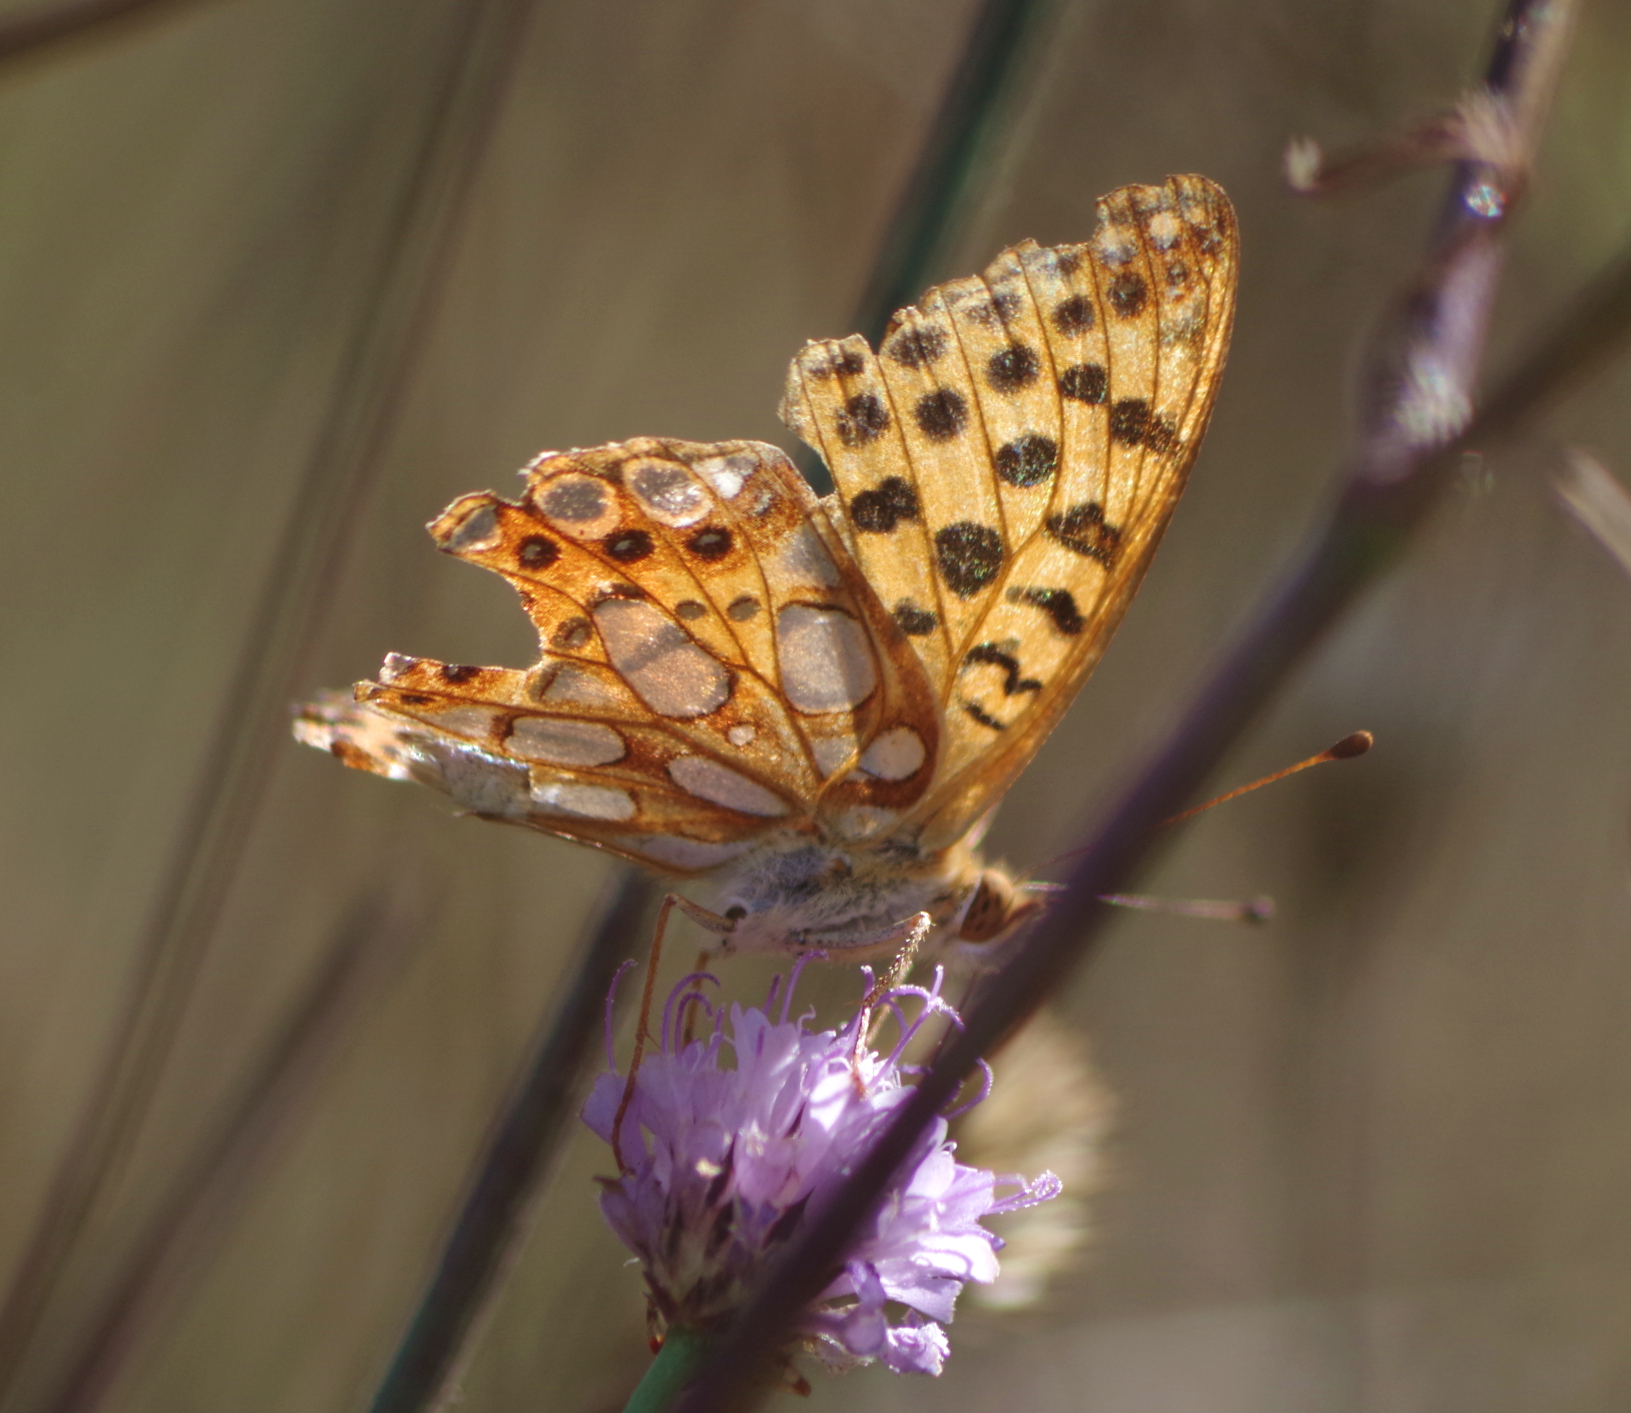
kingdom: Animalia
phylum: Arthropoda
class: Insecta
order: Lepidoptera
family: Nymphalidae
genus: Issoria
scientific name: Issoria lathonia
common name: Queen of spain fritillary
